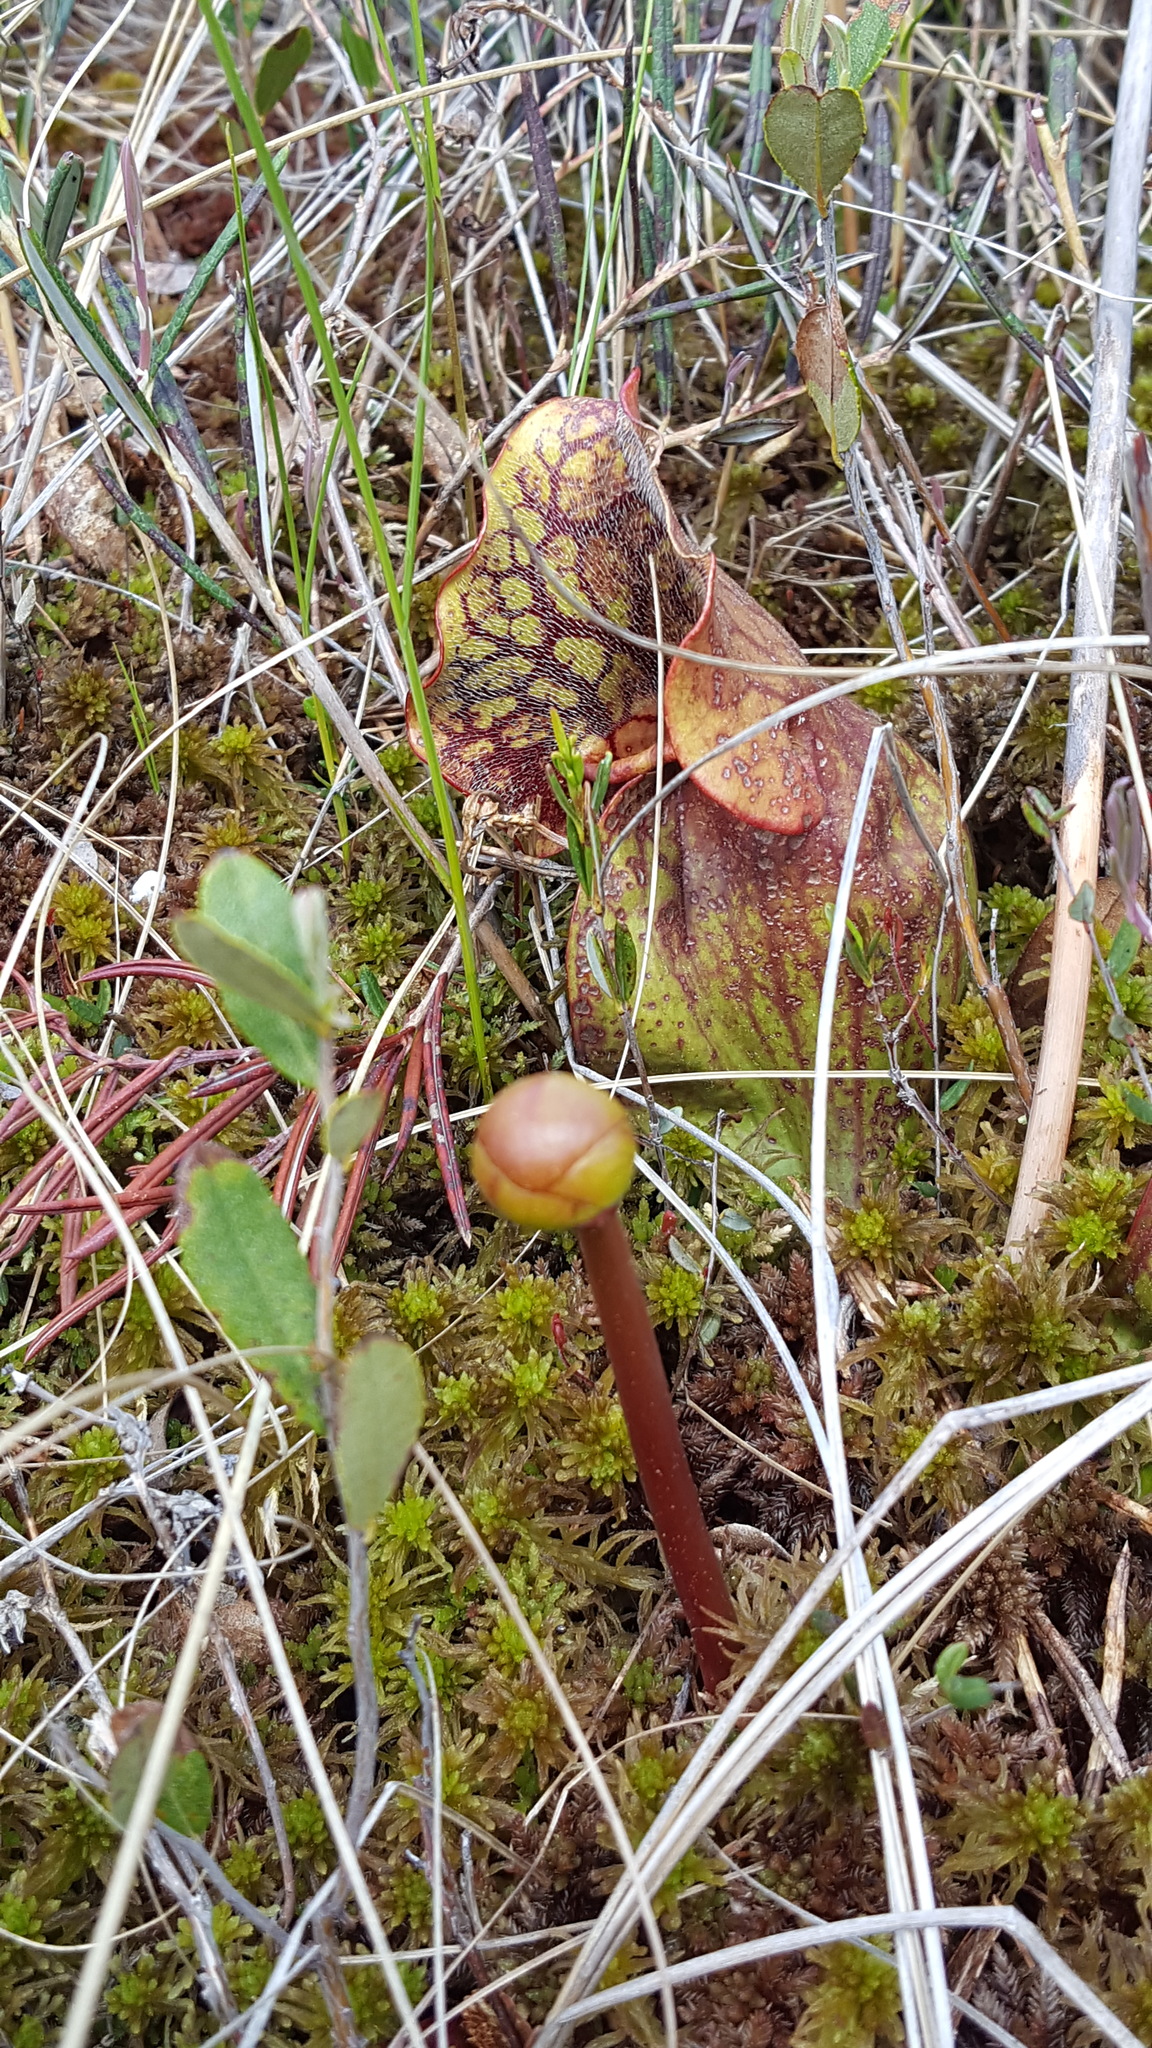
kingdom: Plantae
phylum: Tracheophyta
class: Magnoliopsida
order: Ericales
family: Sarraceniaceae
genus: Sarracenia
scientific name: Sarracenia purpurea
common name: Pitcherplant
